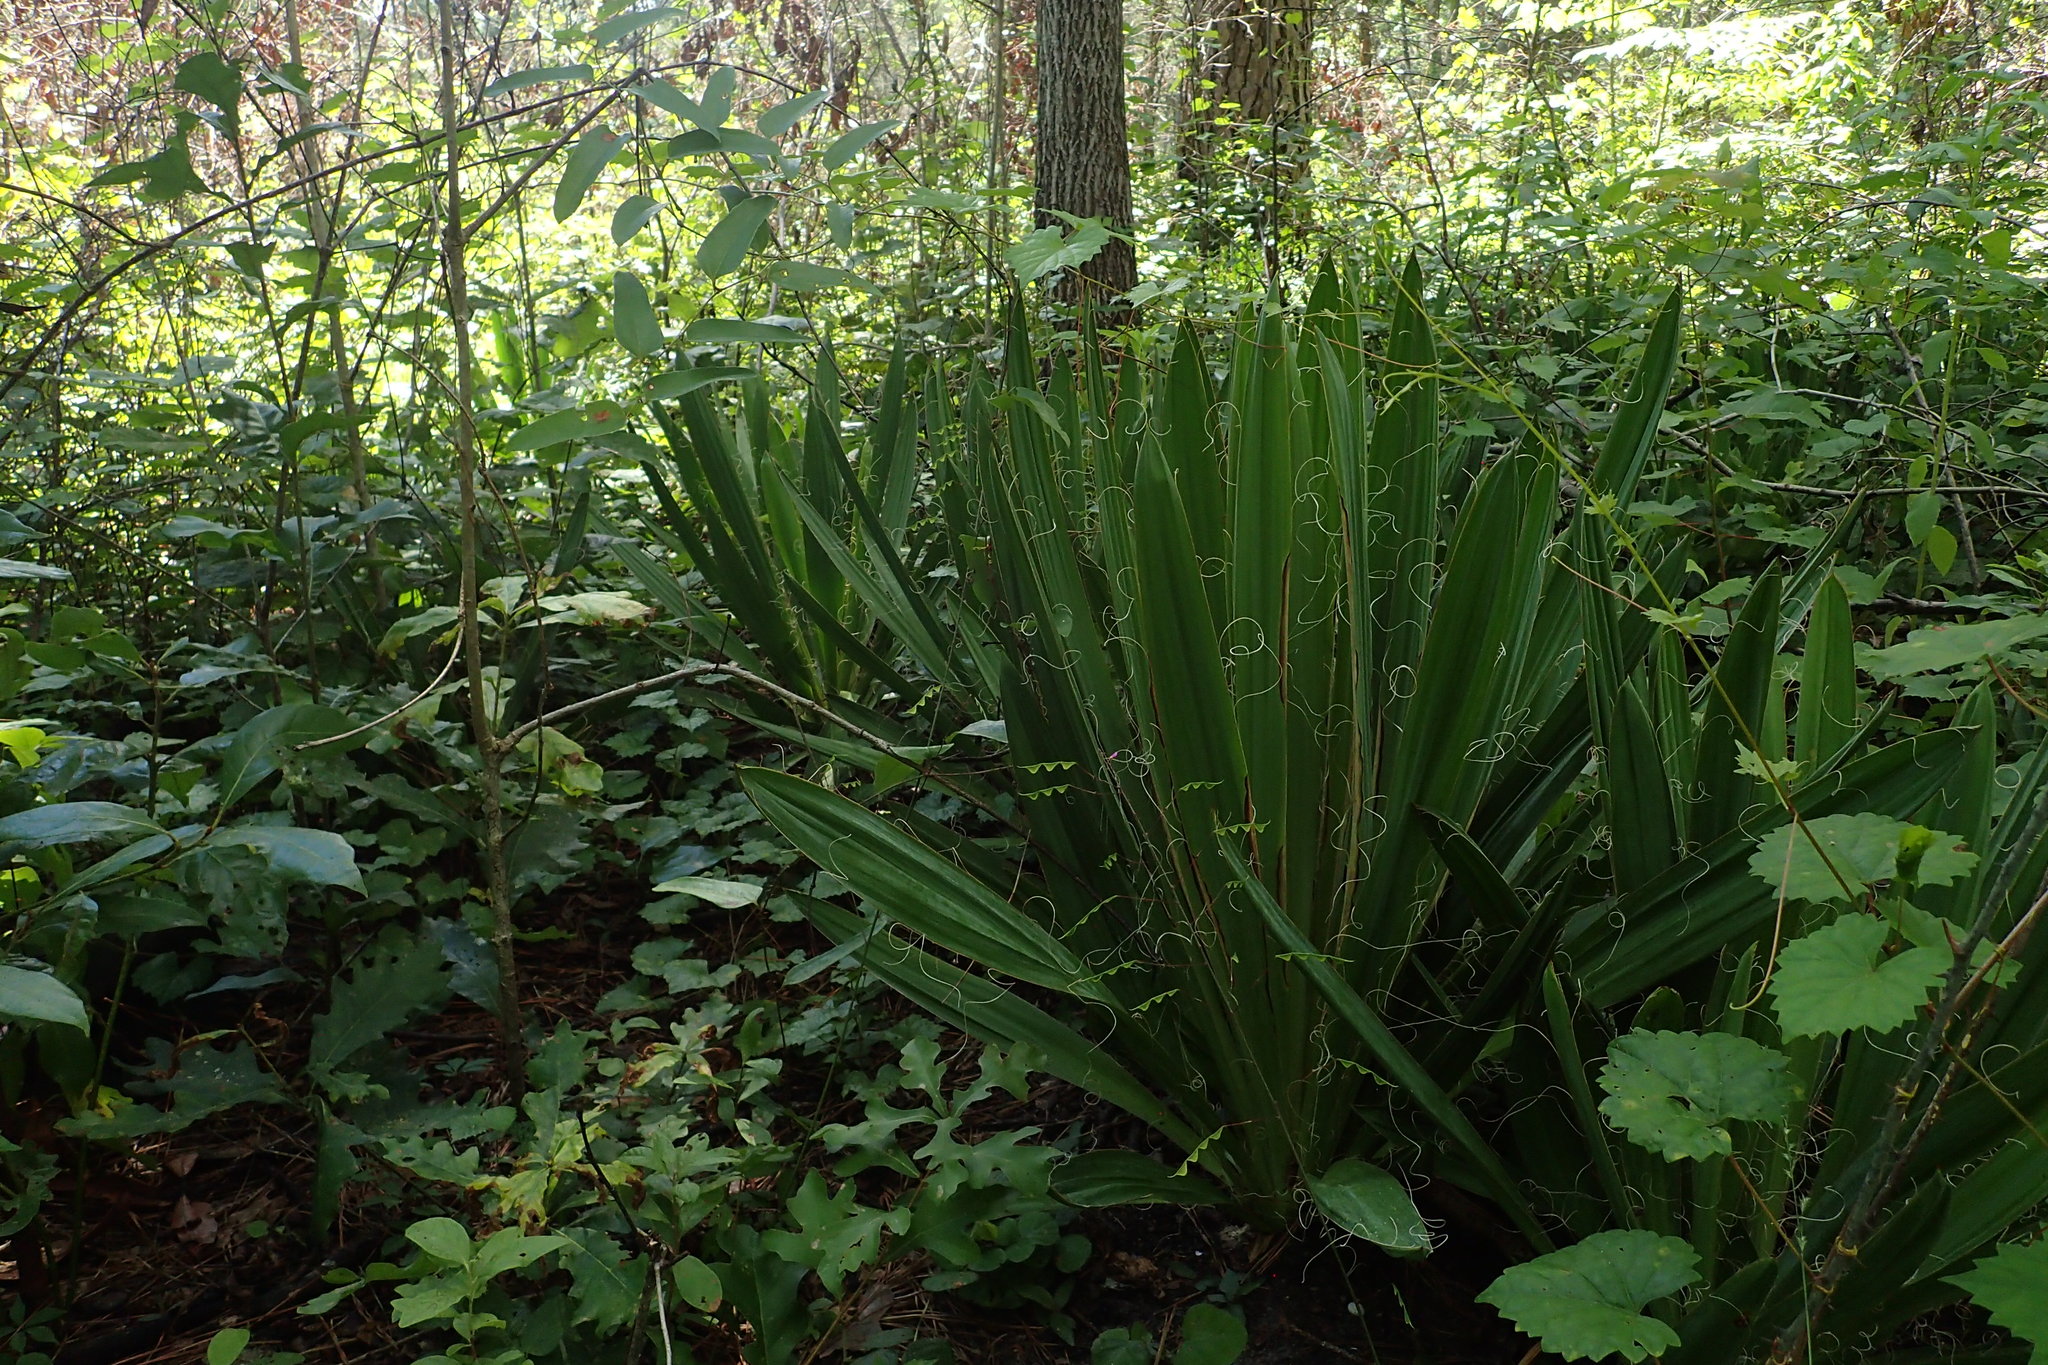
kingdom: Plantae
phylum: Tracheophyta
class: Liliopsida
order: Asparagales
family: Asparagaceae
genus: Yucca
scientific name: Yucca filamentosa
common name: Adam's-needle
